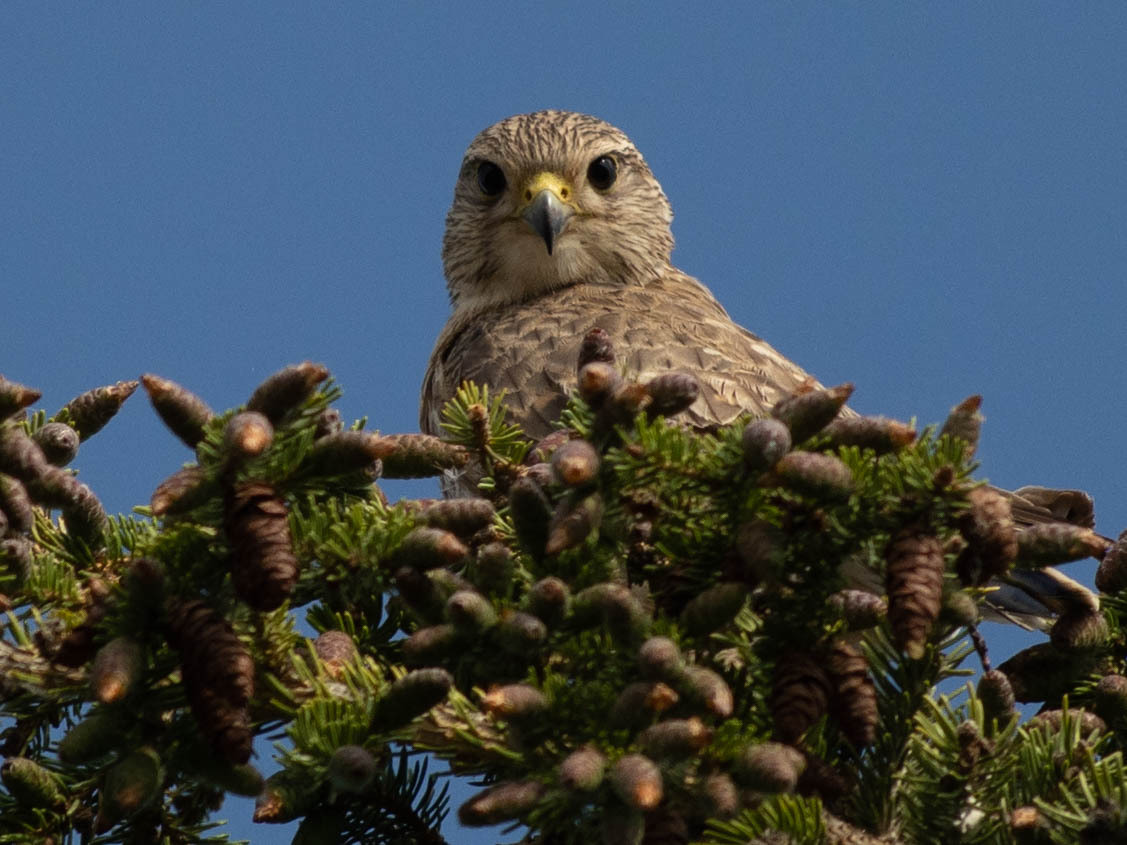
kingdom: Animalia
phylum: Chordata
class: Aves
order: Falconiformes
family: Falconidae
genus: Falco
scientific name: Falco columbarius
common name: Merlin
